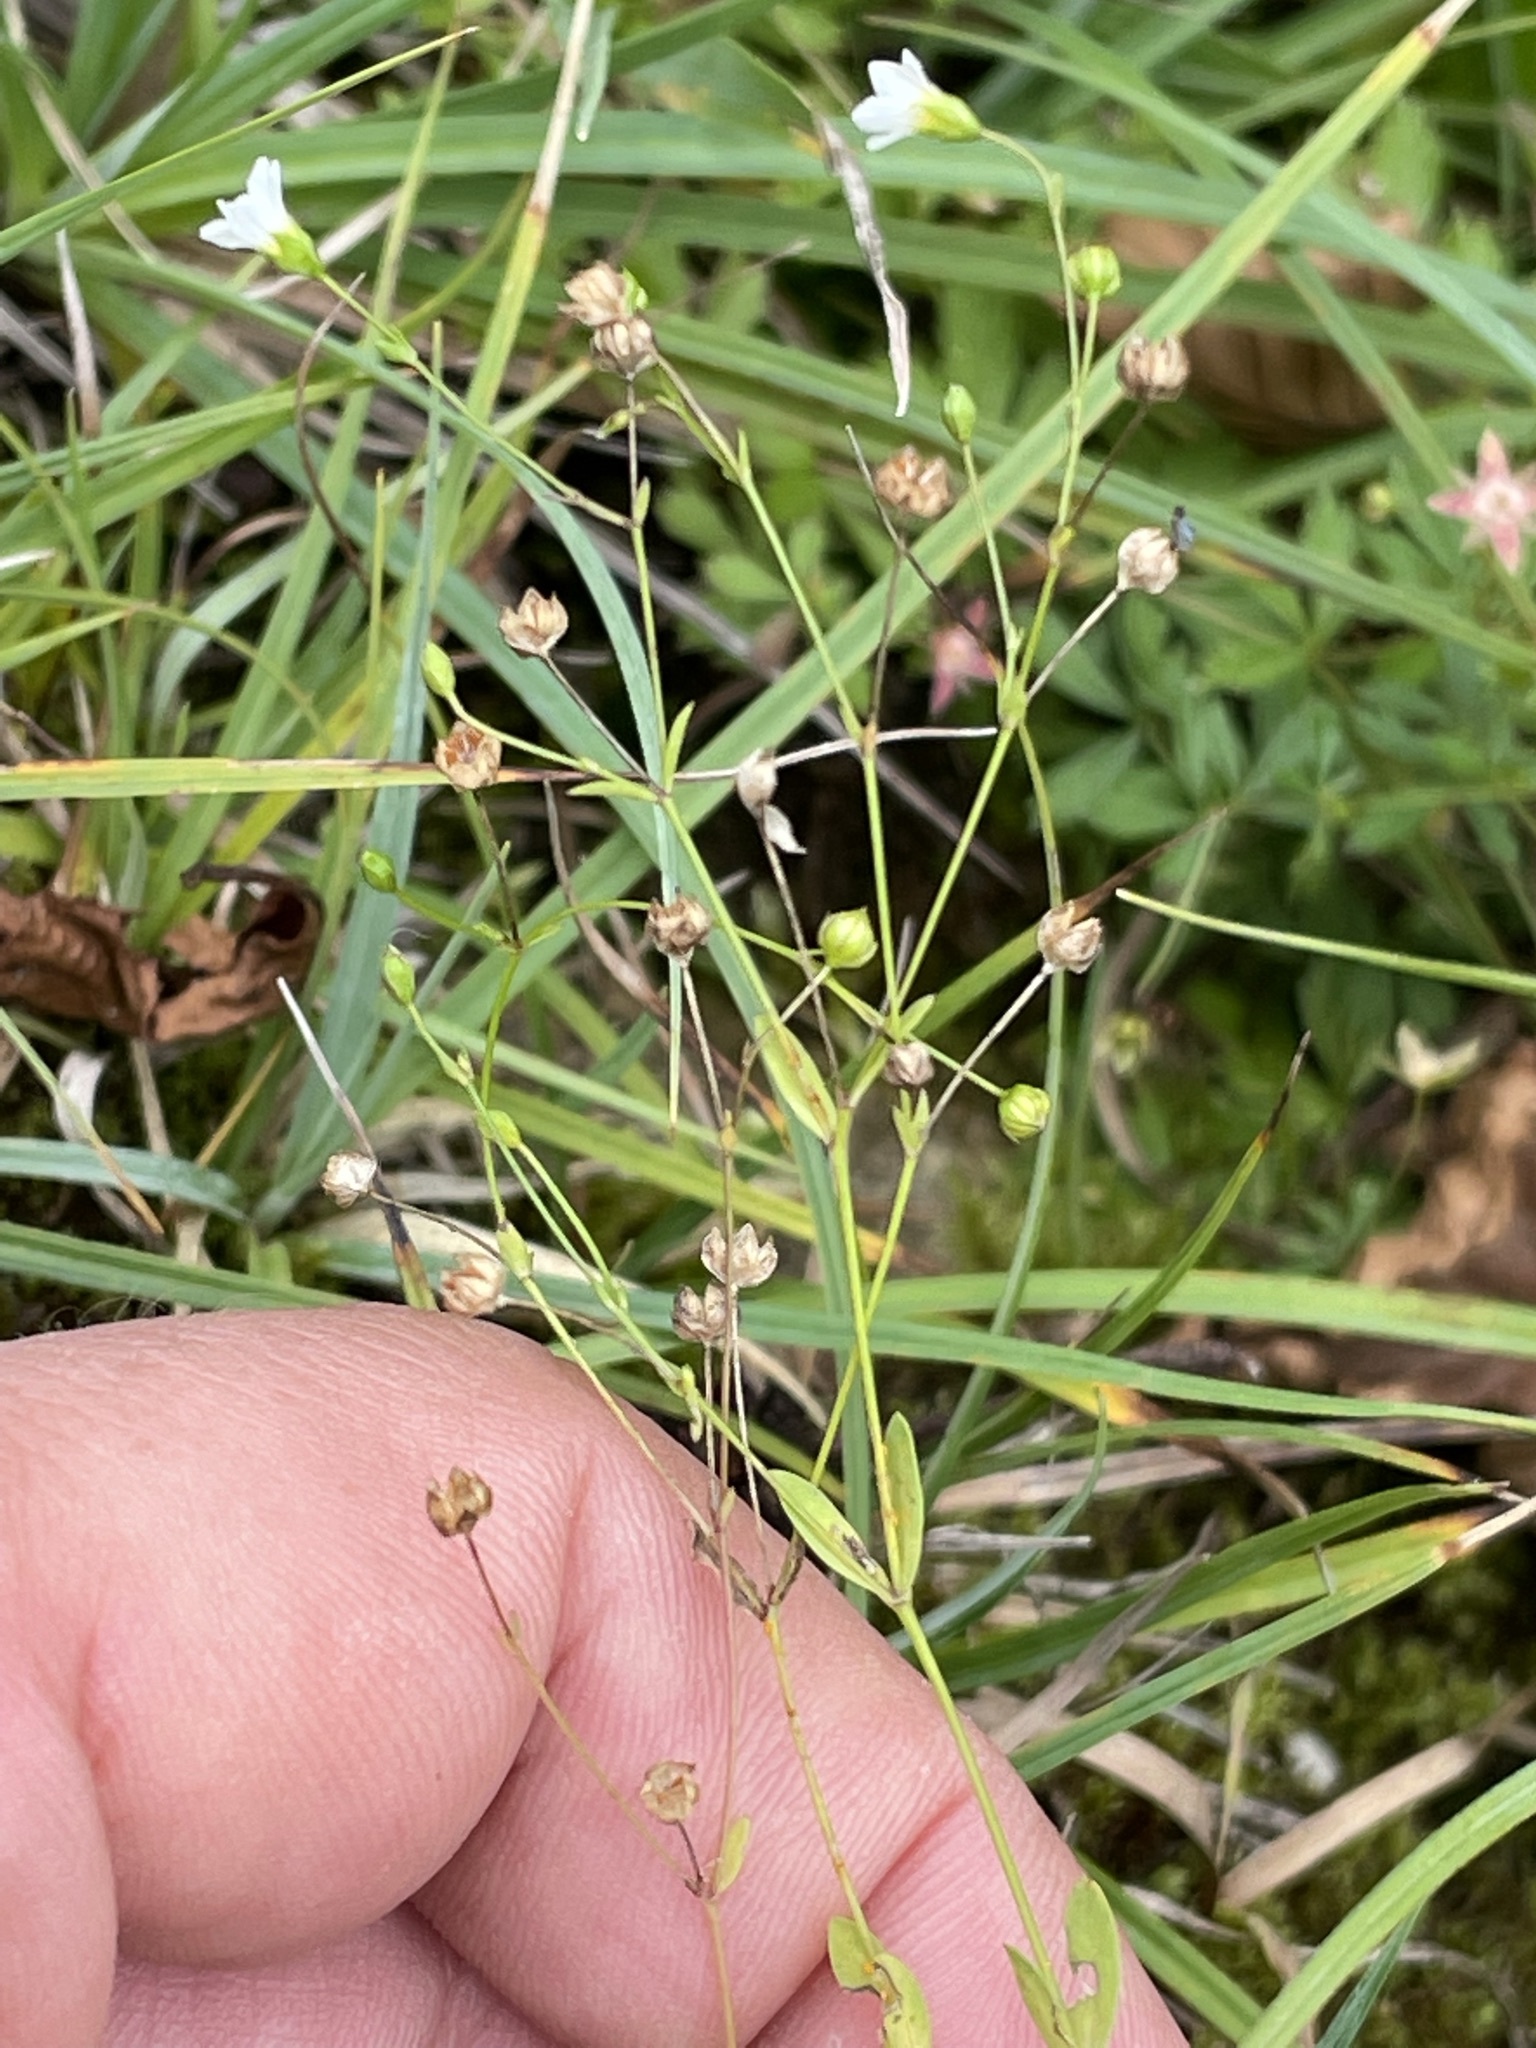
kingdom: Plantae
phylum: Tracheophyta
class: Magnoliopsida
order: Malpighiales
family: Linaceae
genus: Linum
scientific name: Linum catharticum
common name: Fairy flax
